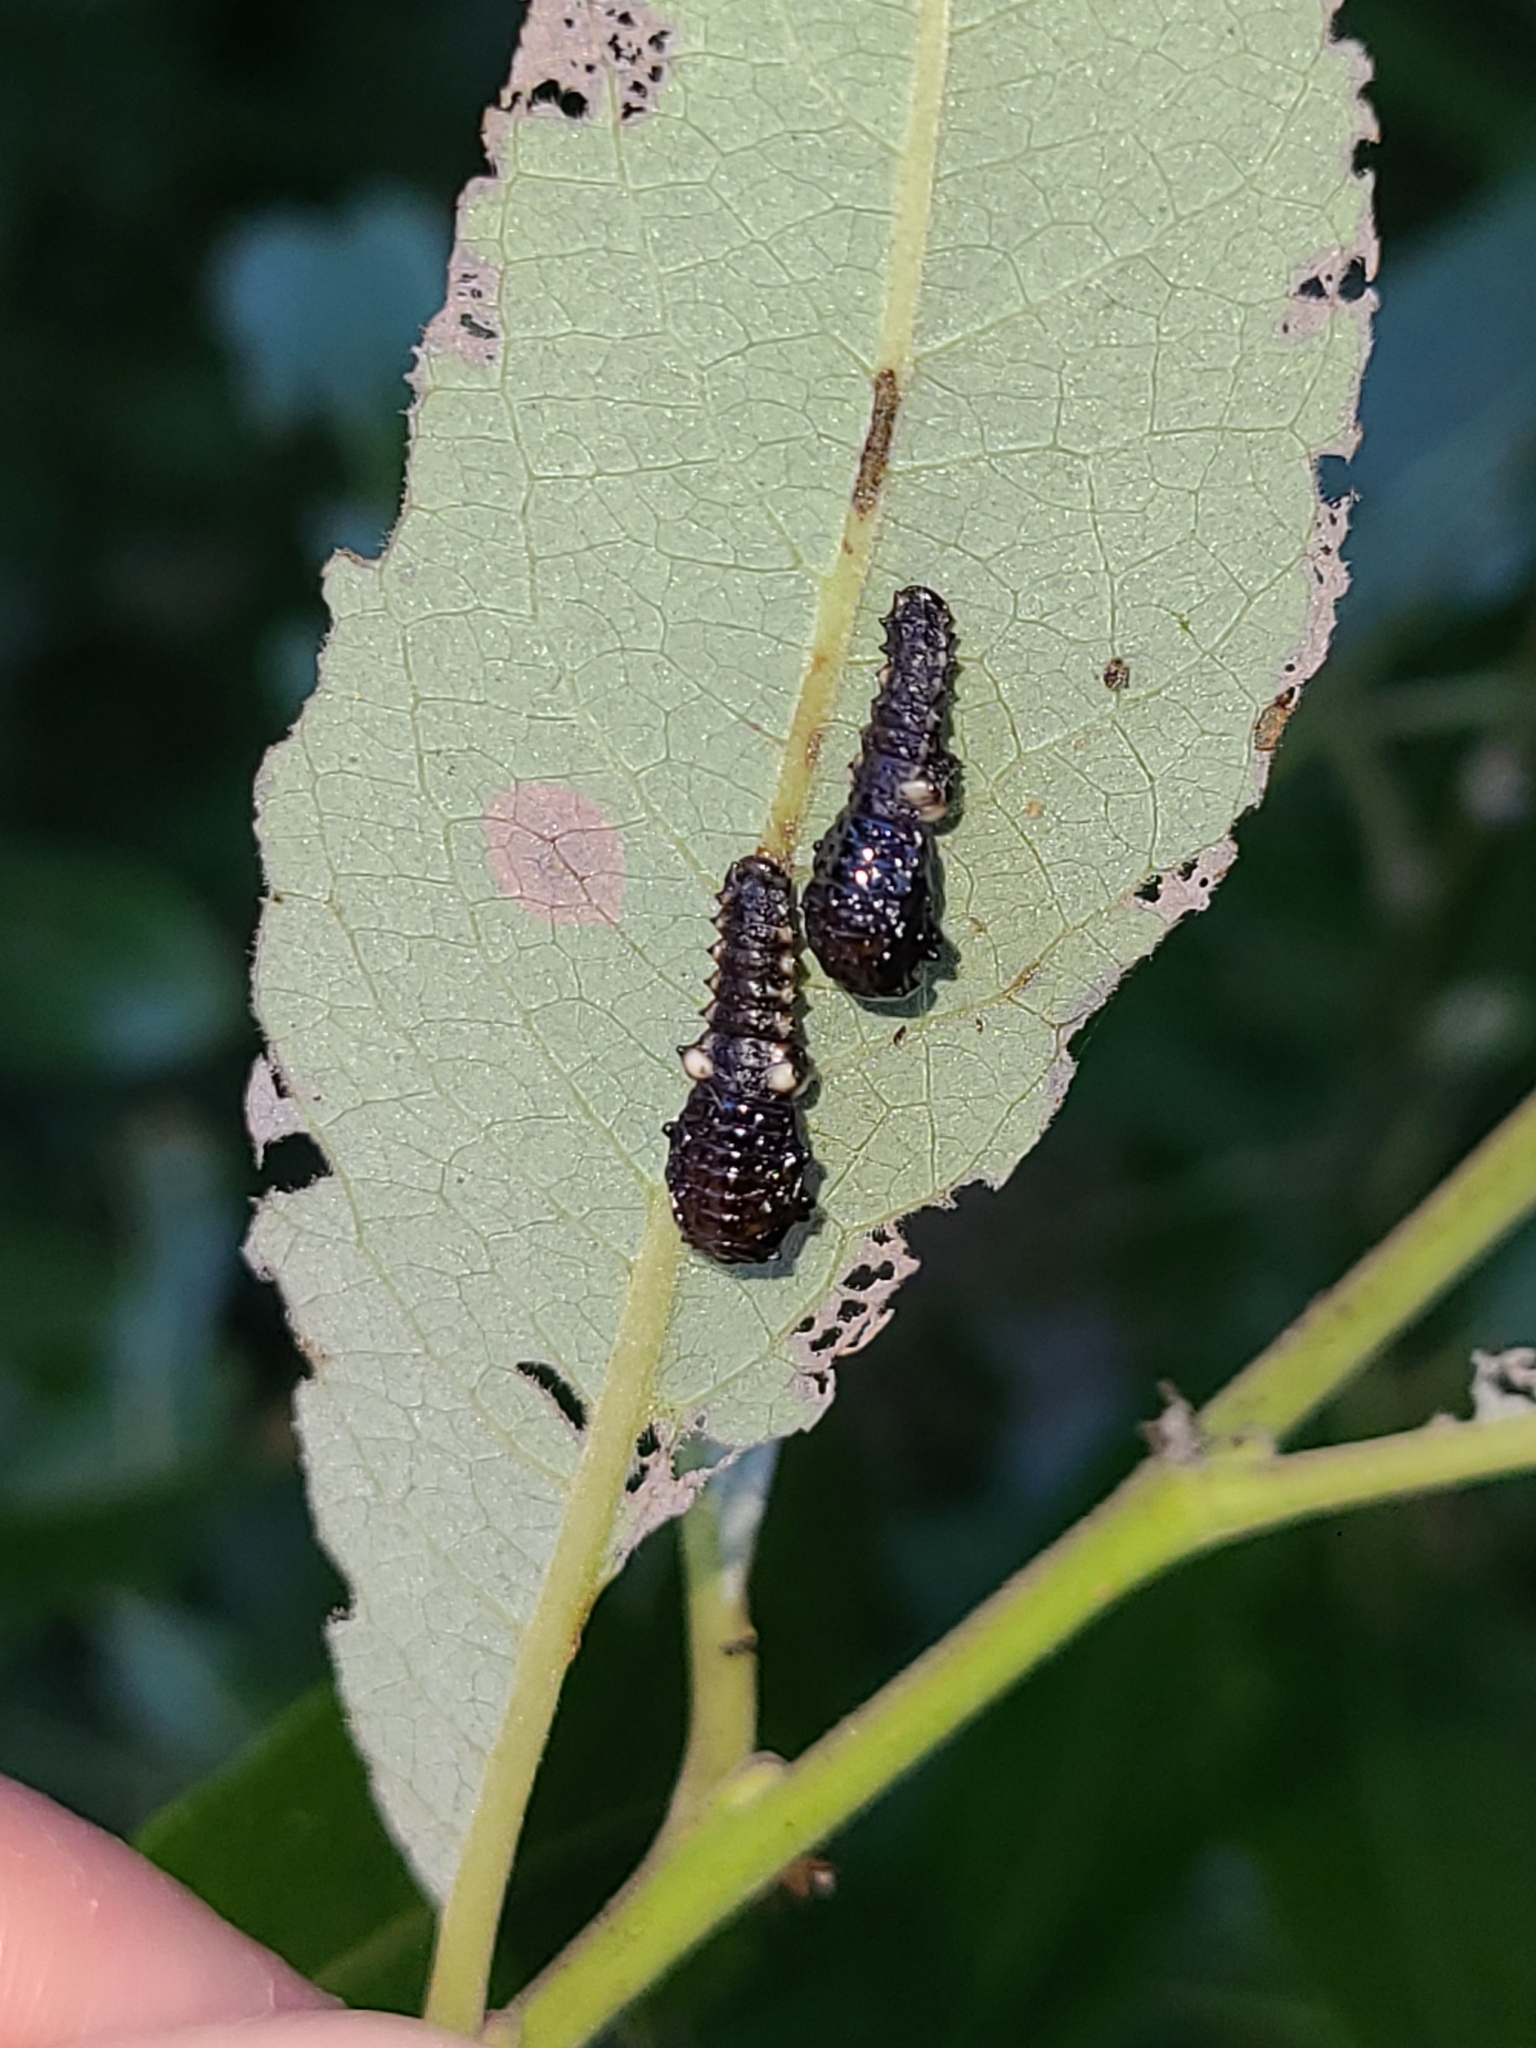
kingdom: Animalia
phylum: Arthropoda
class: Insecta
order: Coleoptera
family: Chrysomelidae
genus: Chrysomela
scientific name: Chrysomela confluens
